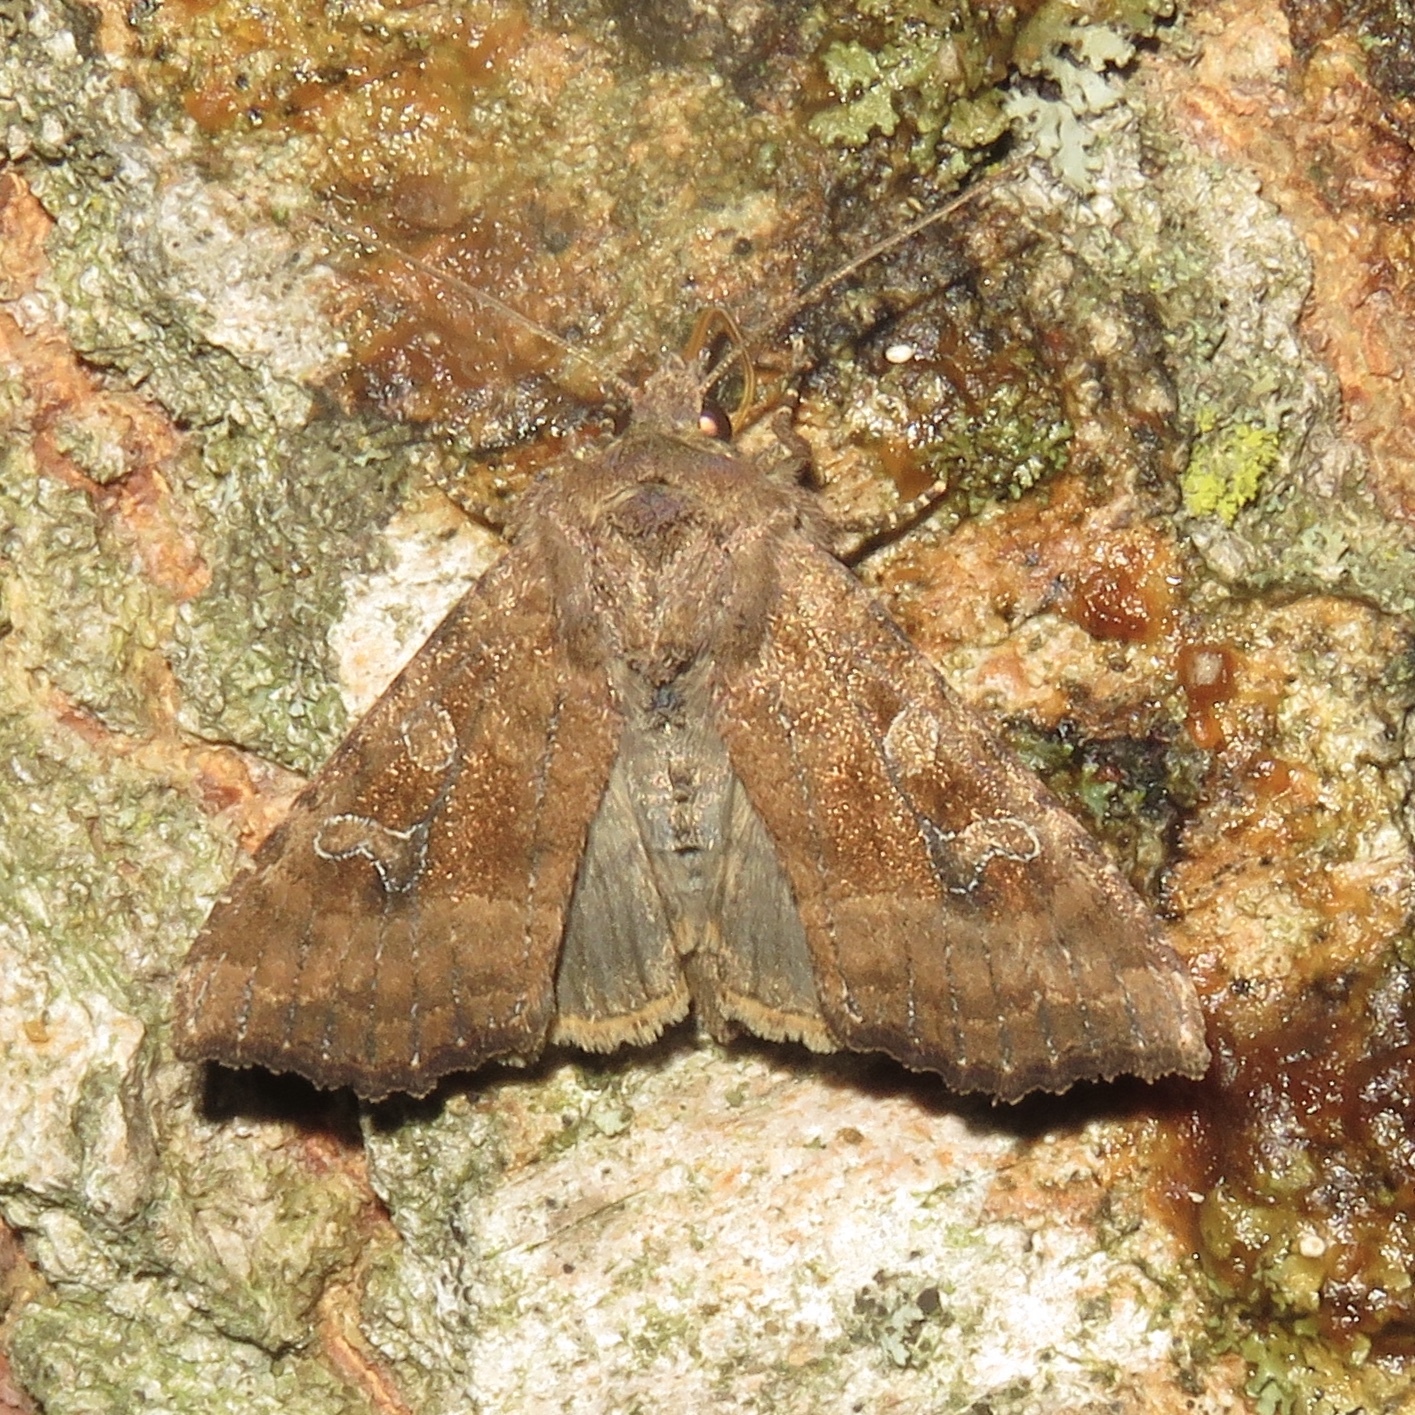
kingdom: Animalia
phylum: Arthropoda
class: Insecta
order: Lepidoptera
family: Noctuidae
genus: Loscopia
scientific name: Loscopia velata
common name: Veiled ear moth
